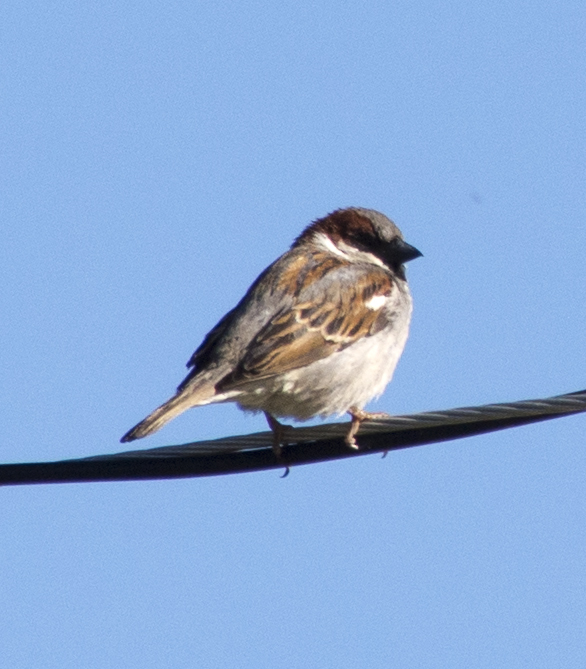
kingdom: Animalia
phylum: Chordata
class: Aves
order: Passeriformes
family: Passeridae
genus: Passer
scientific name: Passer domesticus
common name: House sparrow
